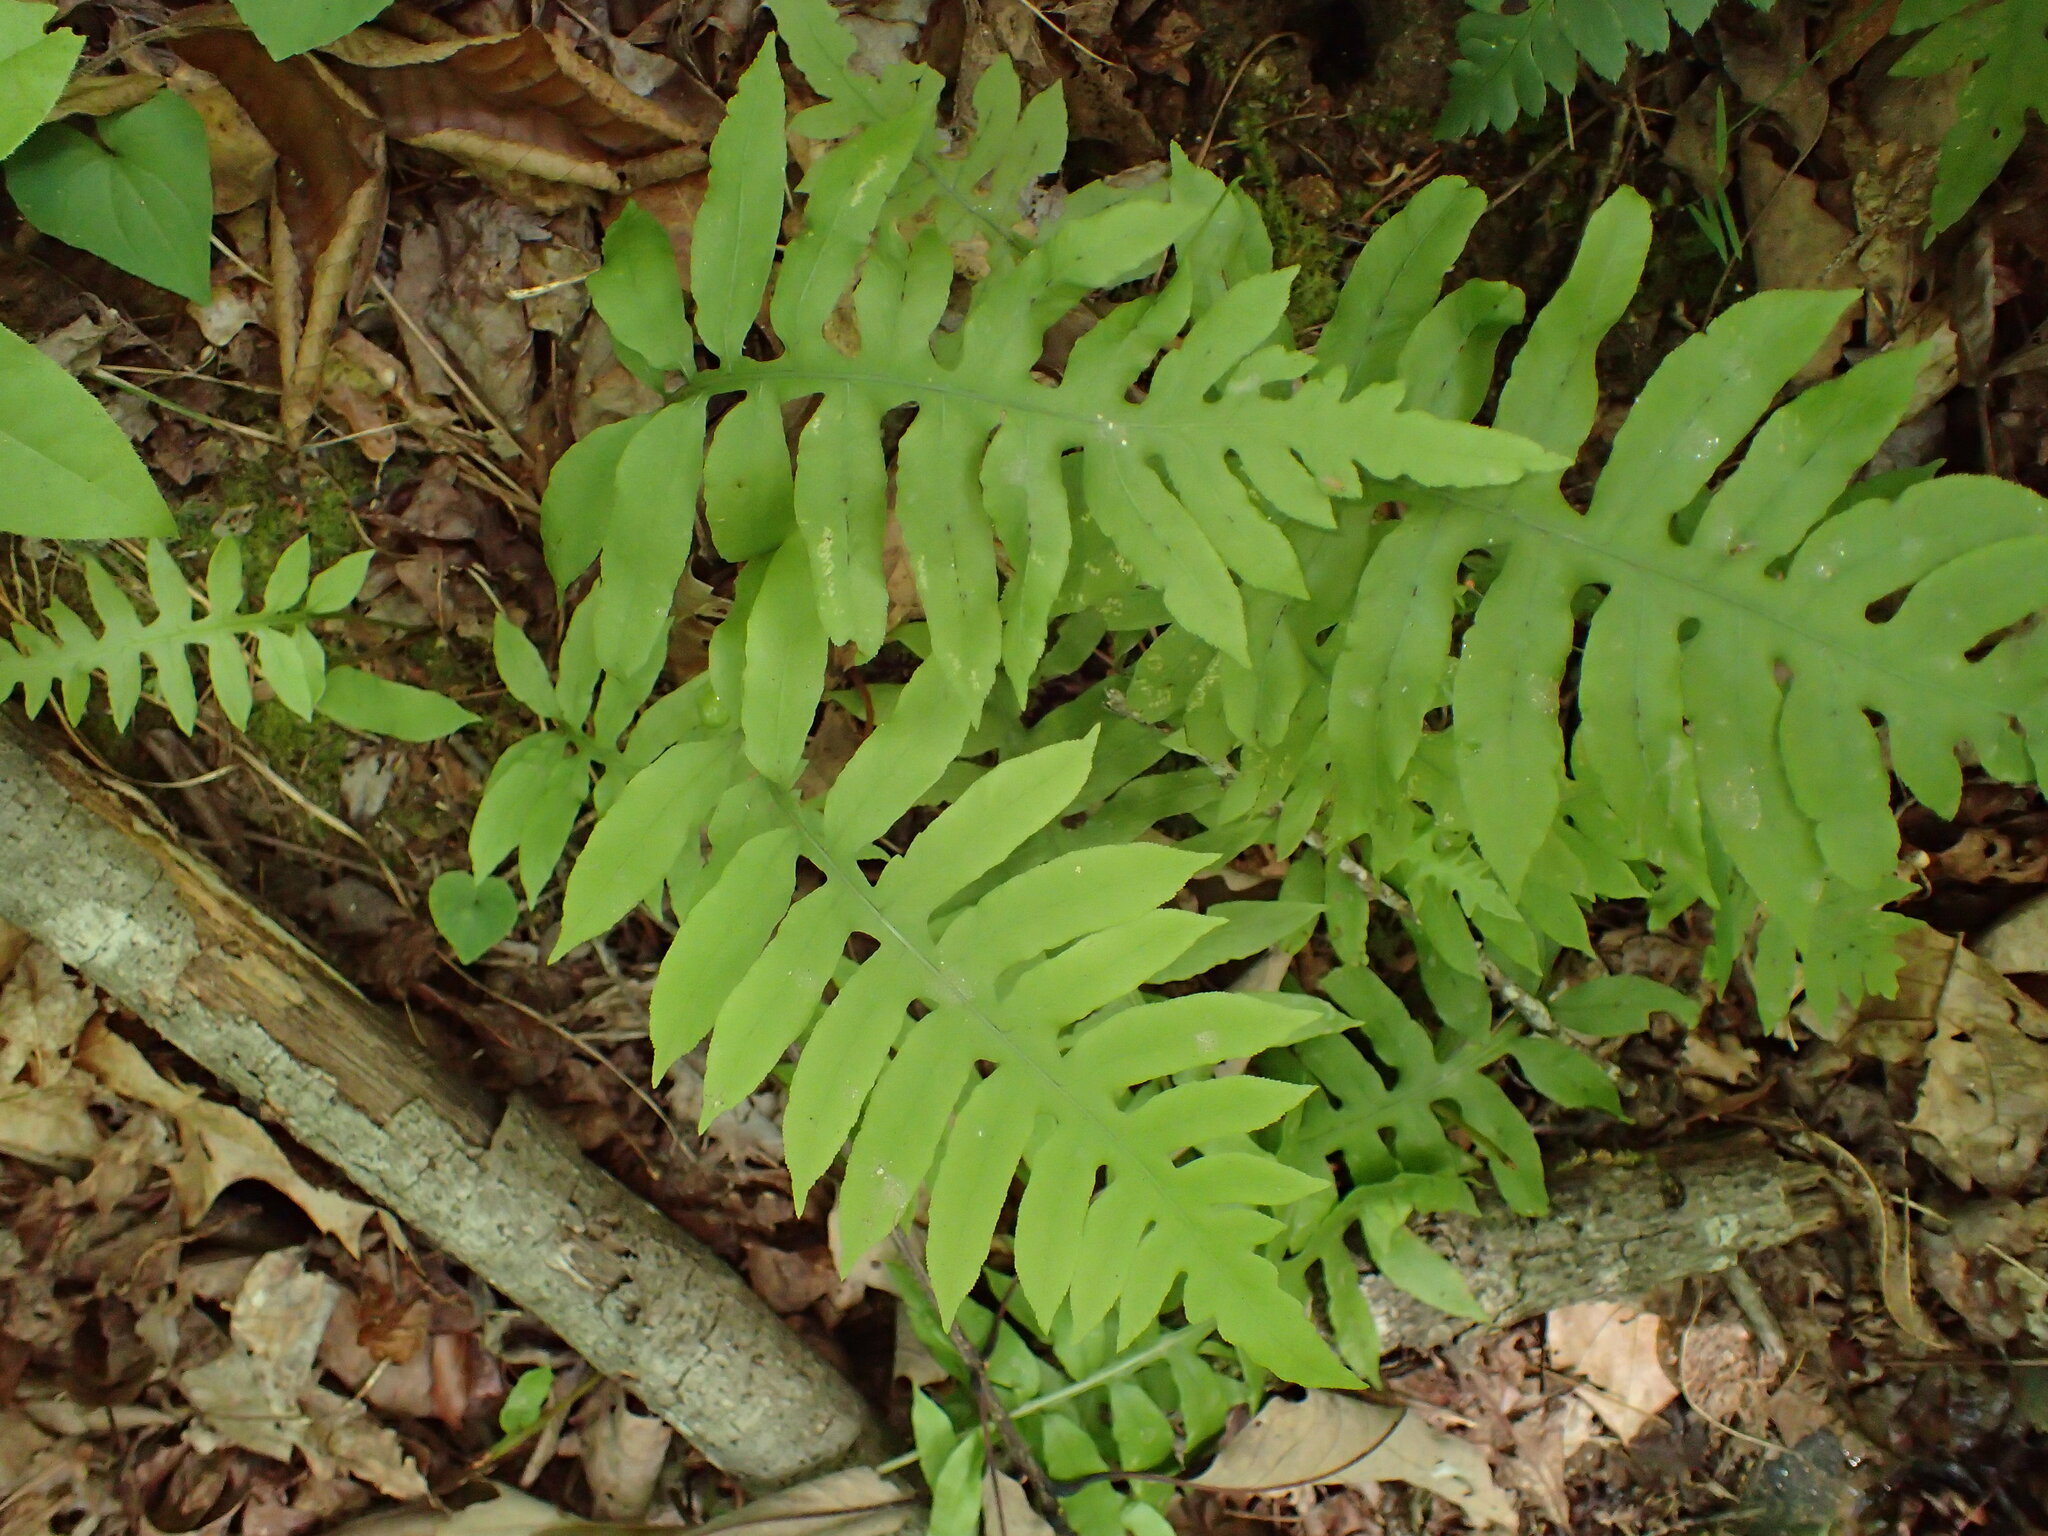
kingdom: Plantae
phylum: Tracheophyta
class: Polypodiopsida
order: Polypodiales
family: Blechnaceae
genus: Lorinseria
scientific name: Lorinseria areolata
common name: Dwarf chain fern
